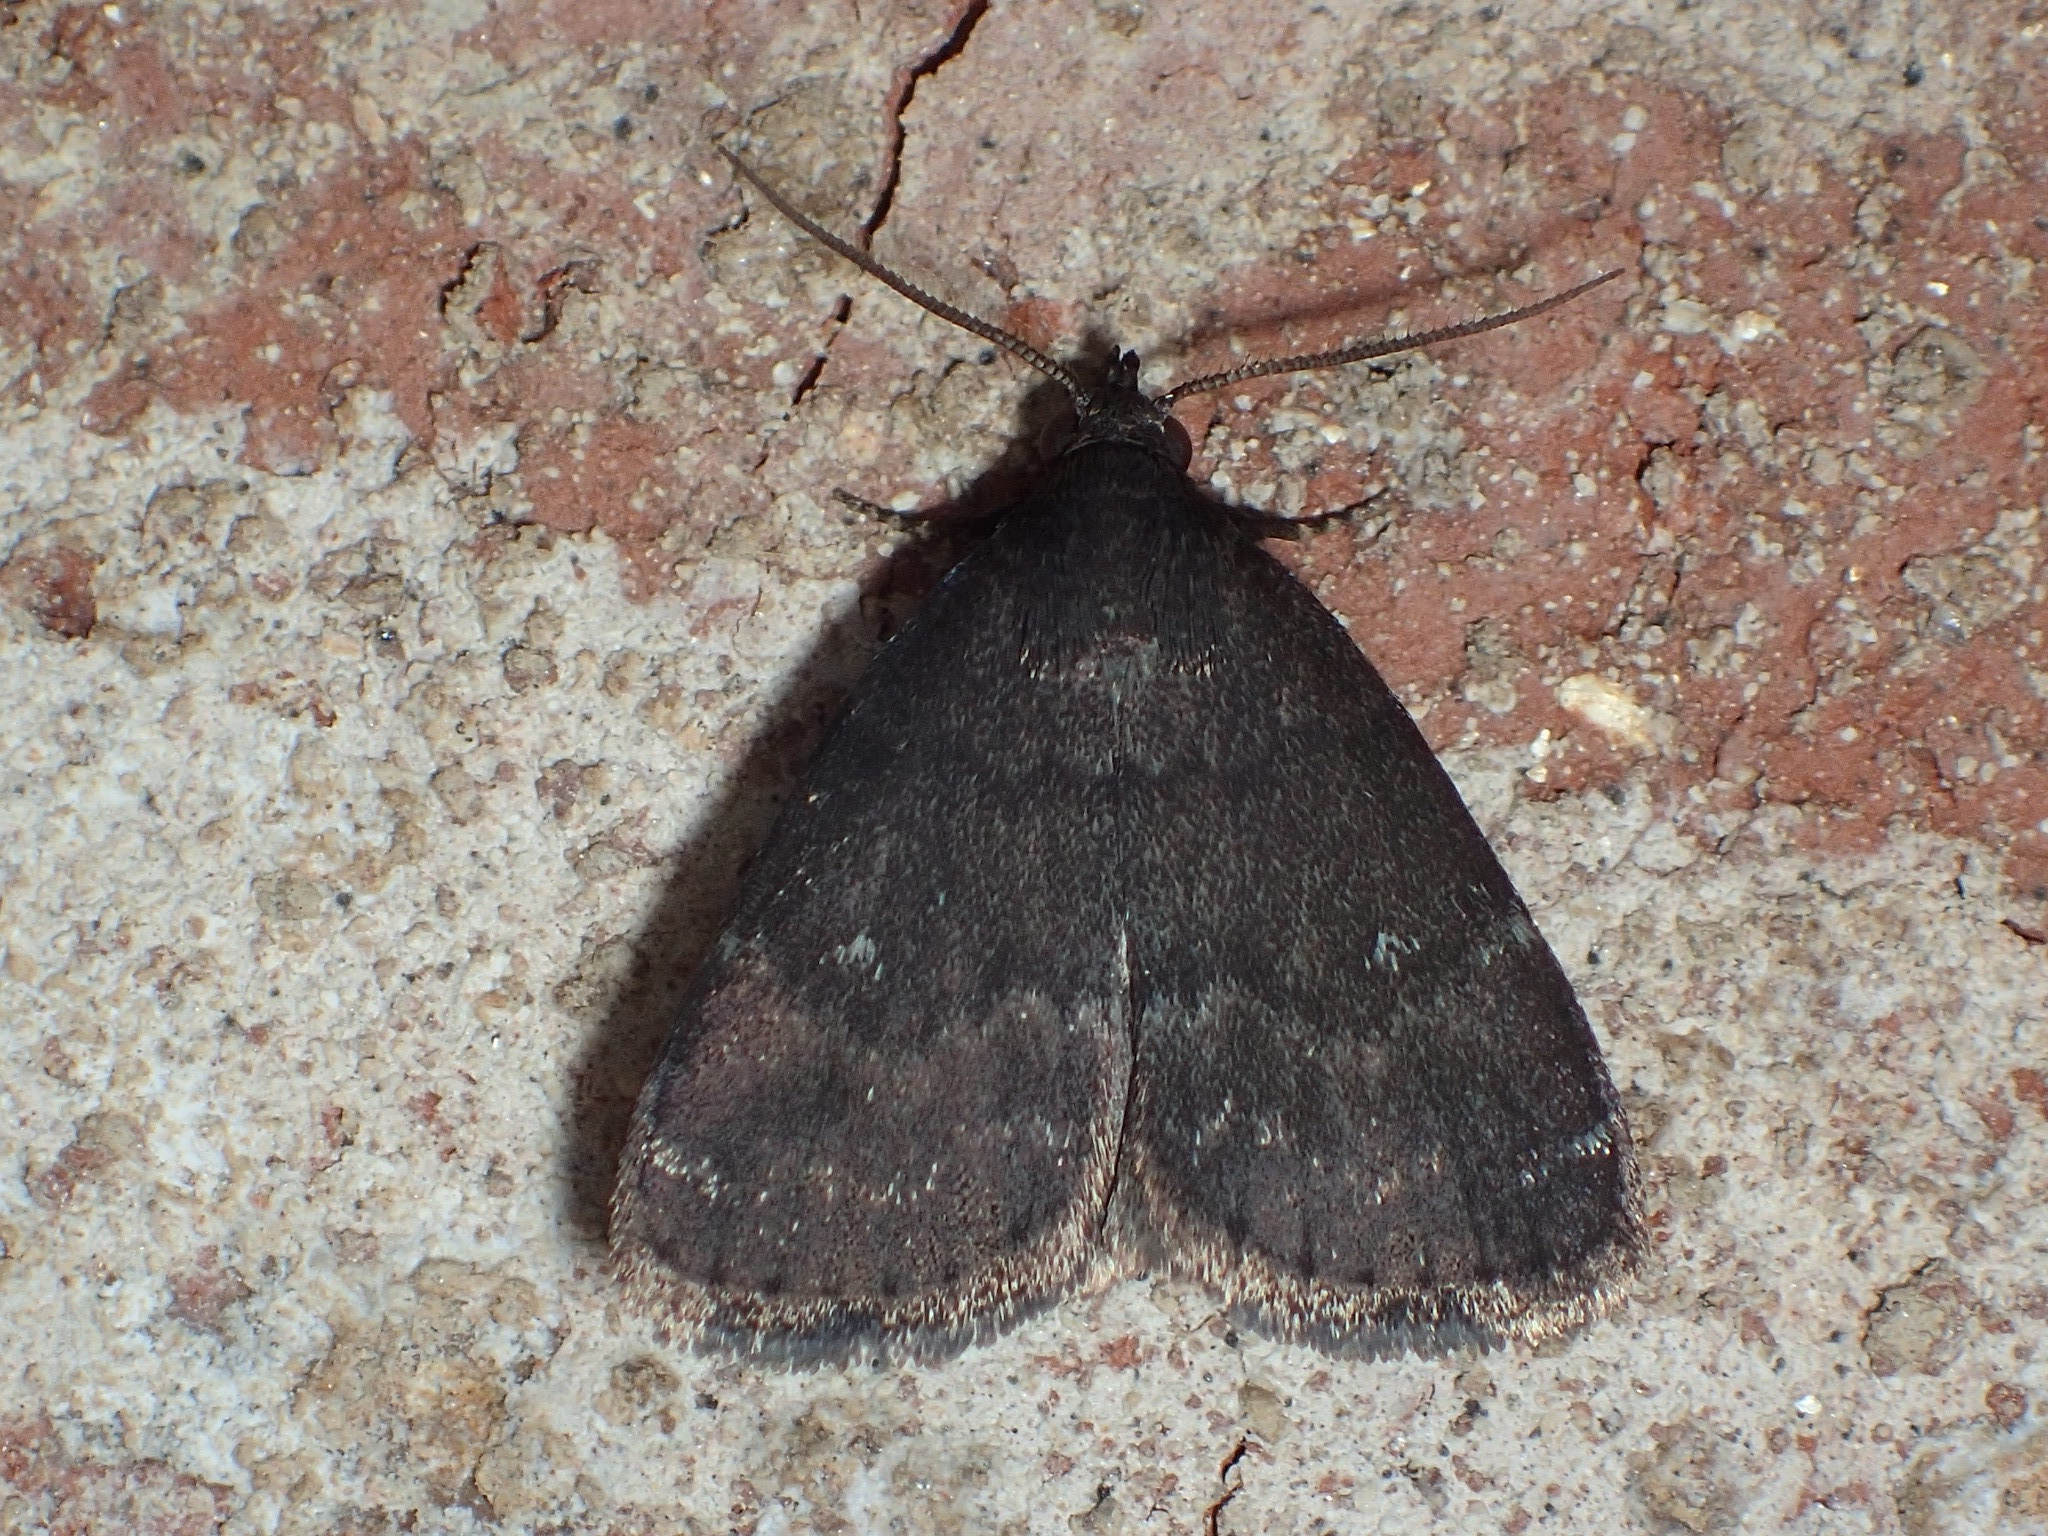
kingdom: Animalia
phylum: Arthropoda
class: Insecta
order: Lepidoptera
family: Erebidae
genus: Idia
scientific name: Idia julia
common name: Julia's idia moth
